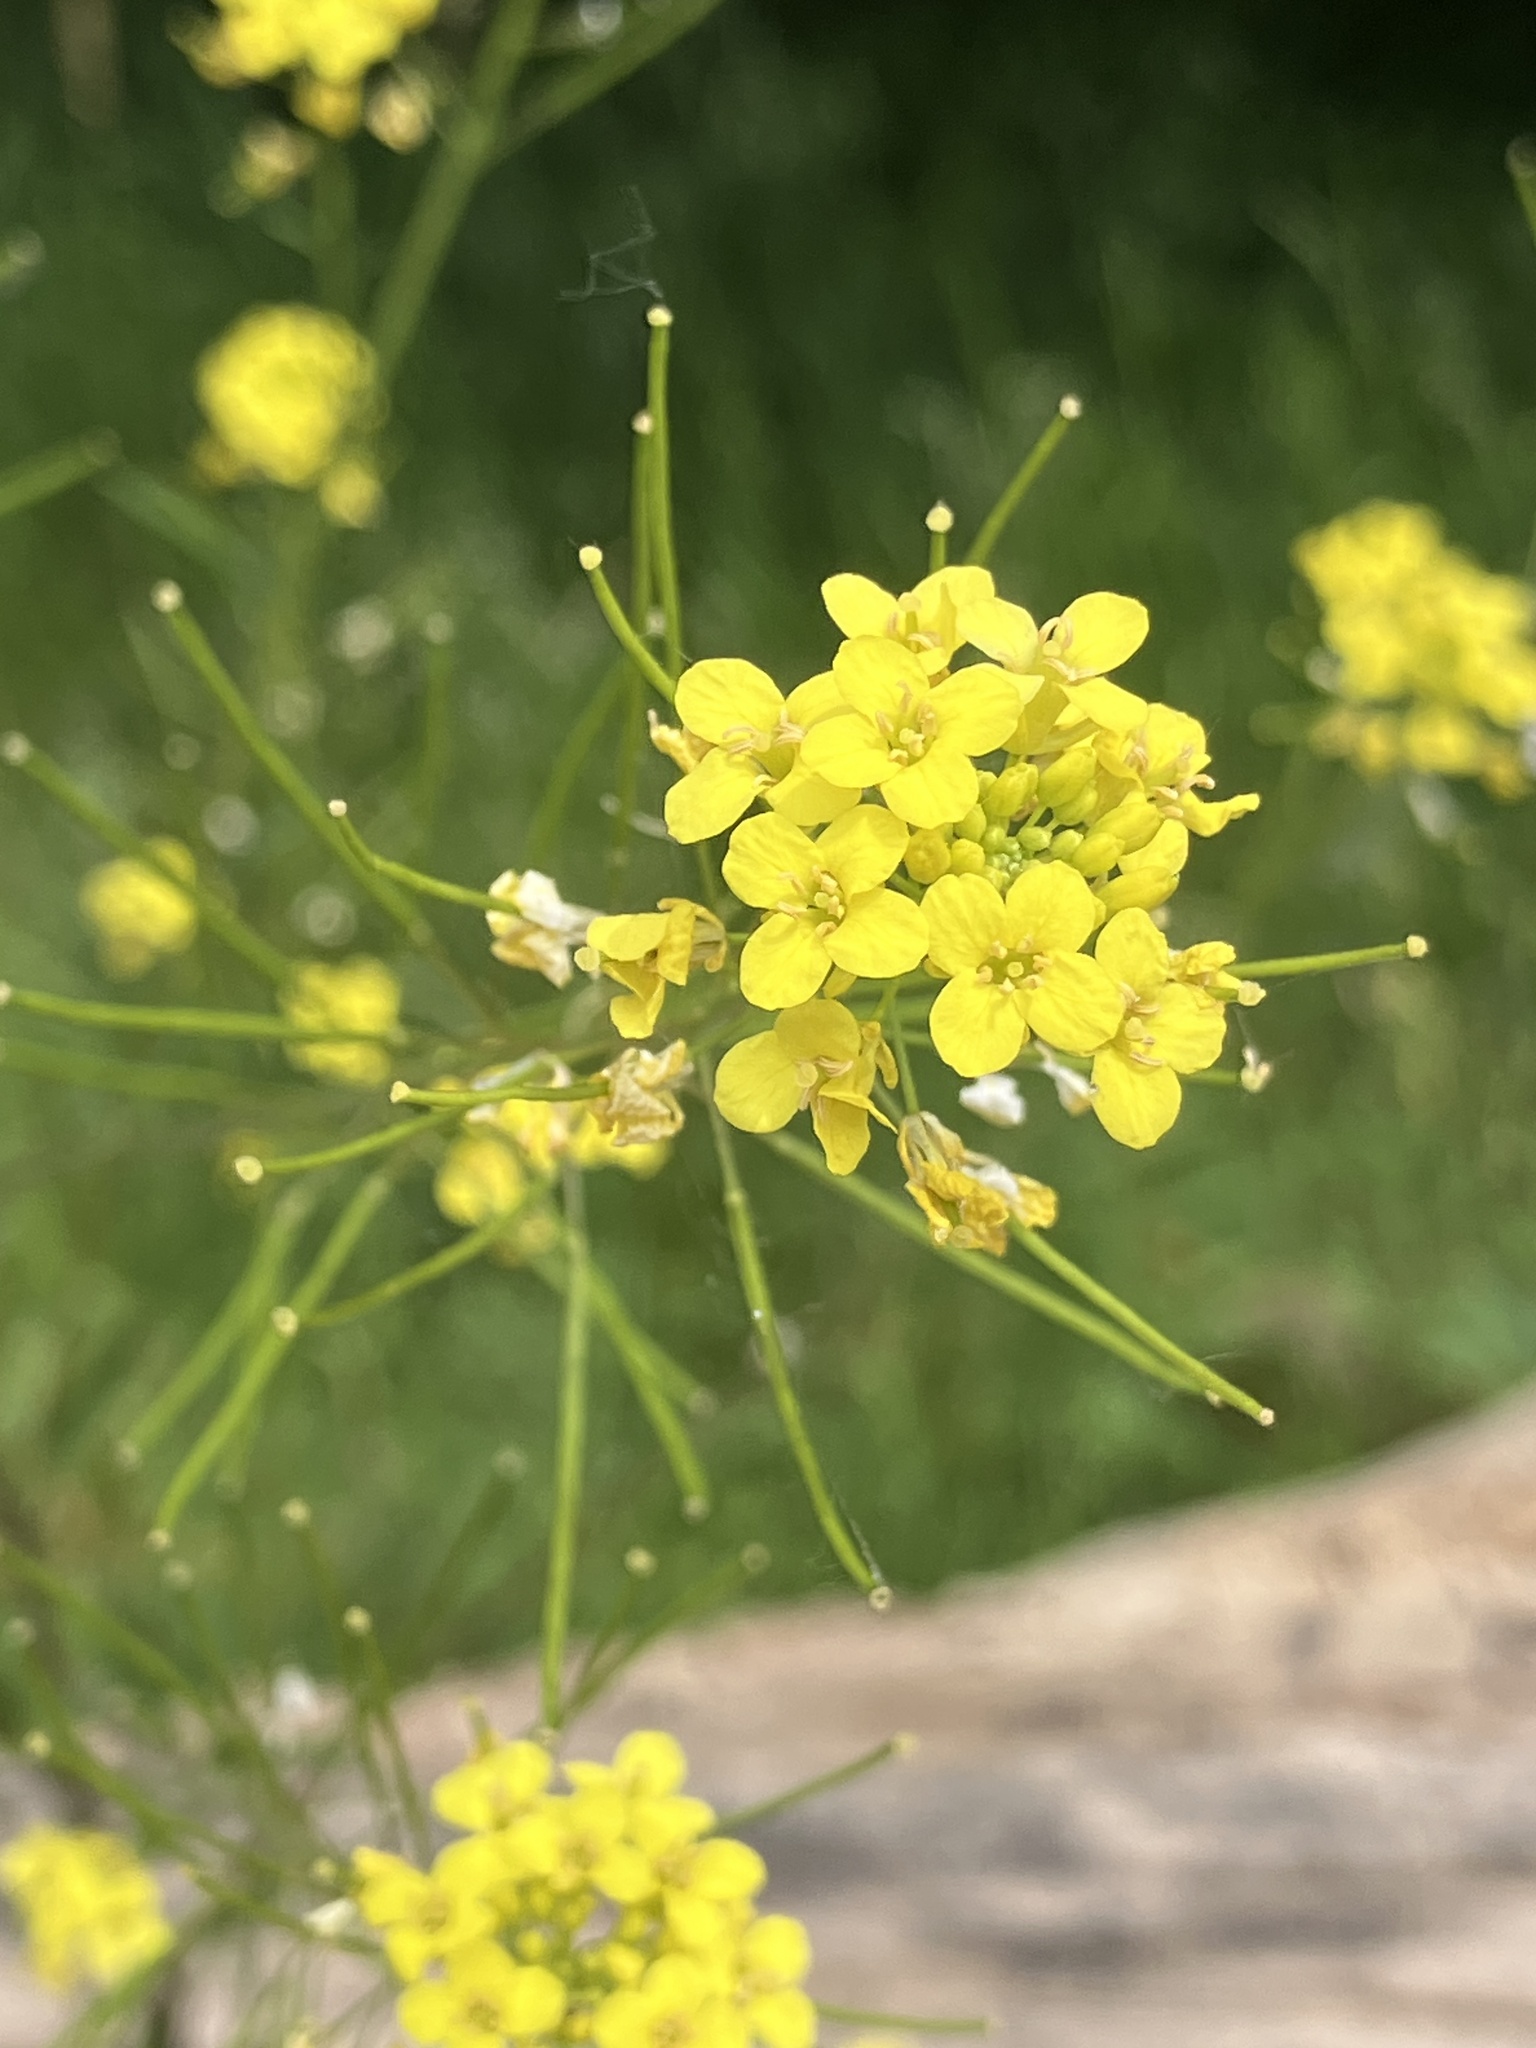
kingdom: Plantae
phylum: Tracheophyta
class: Magnoliopsida
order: Brassicales
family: Brassicaceae
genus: Sisymbrium
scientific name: Sisymbrium loeselii
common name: False london-rocket
